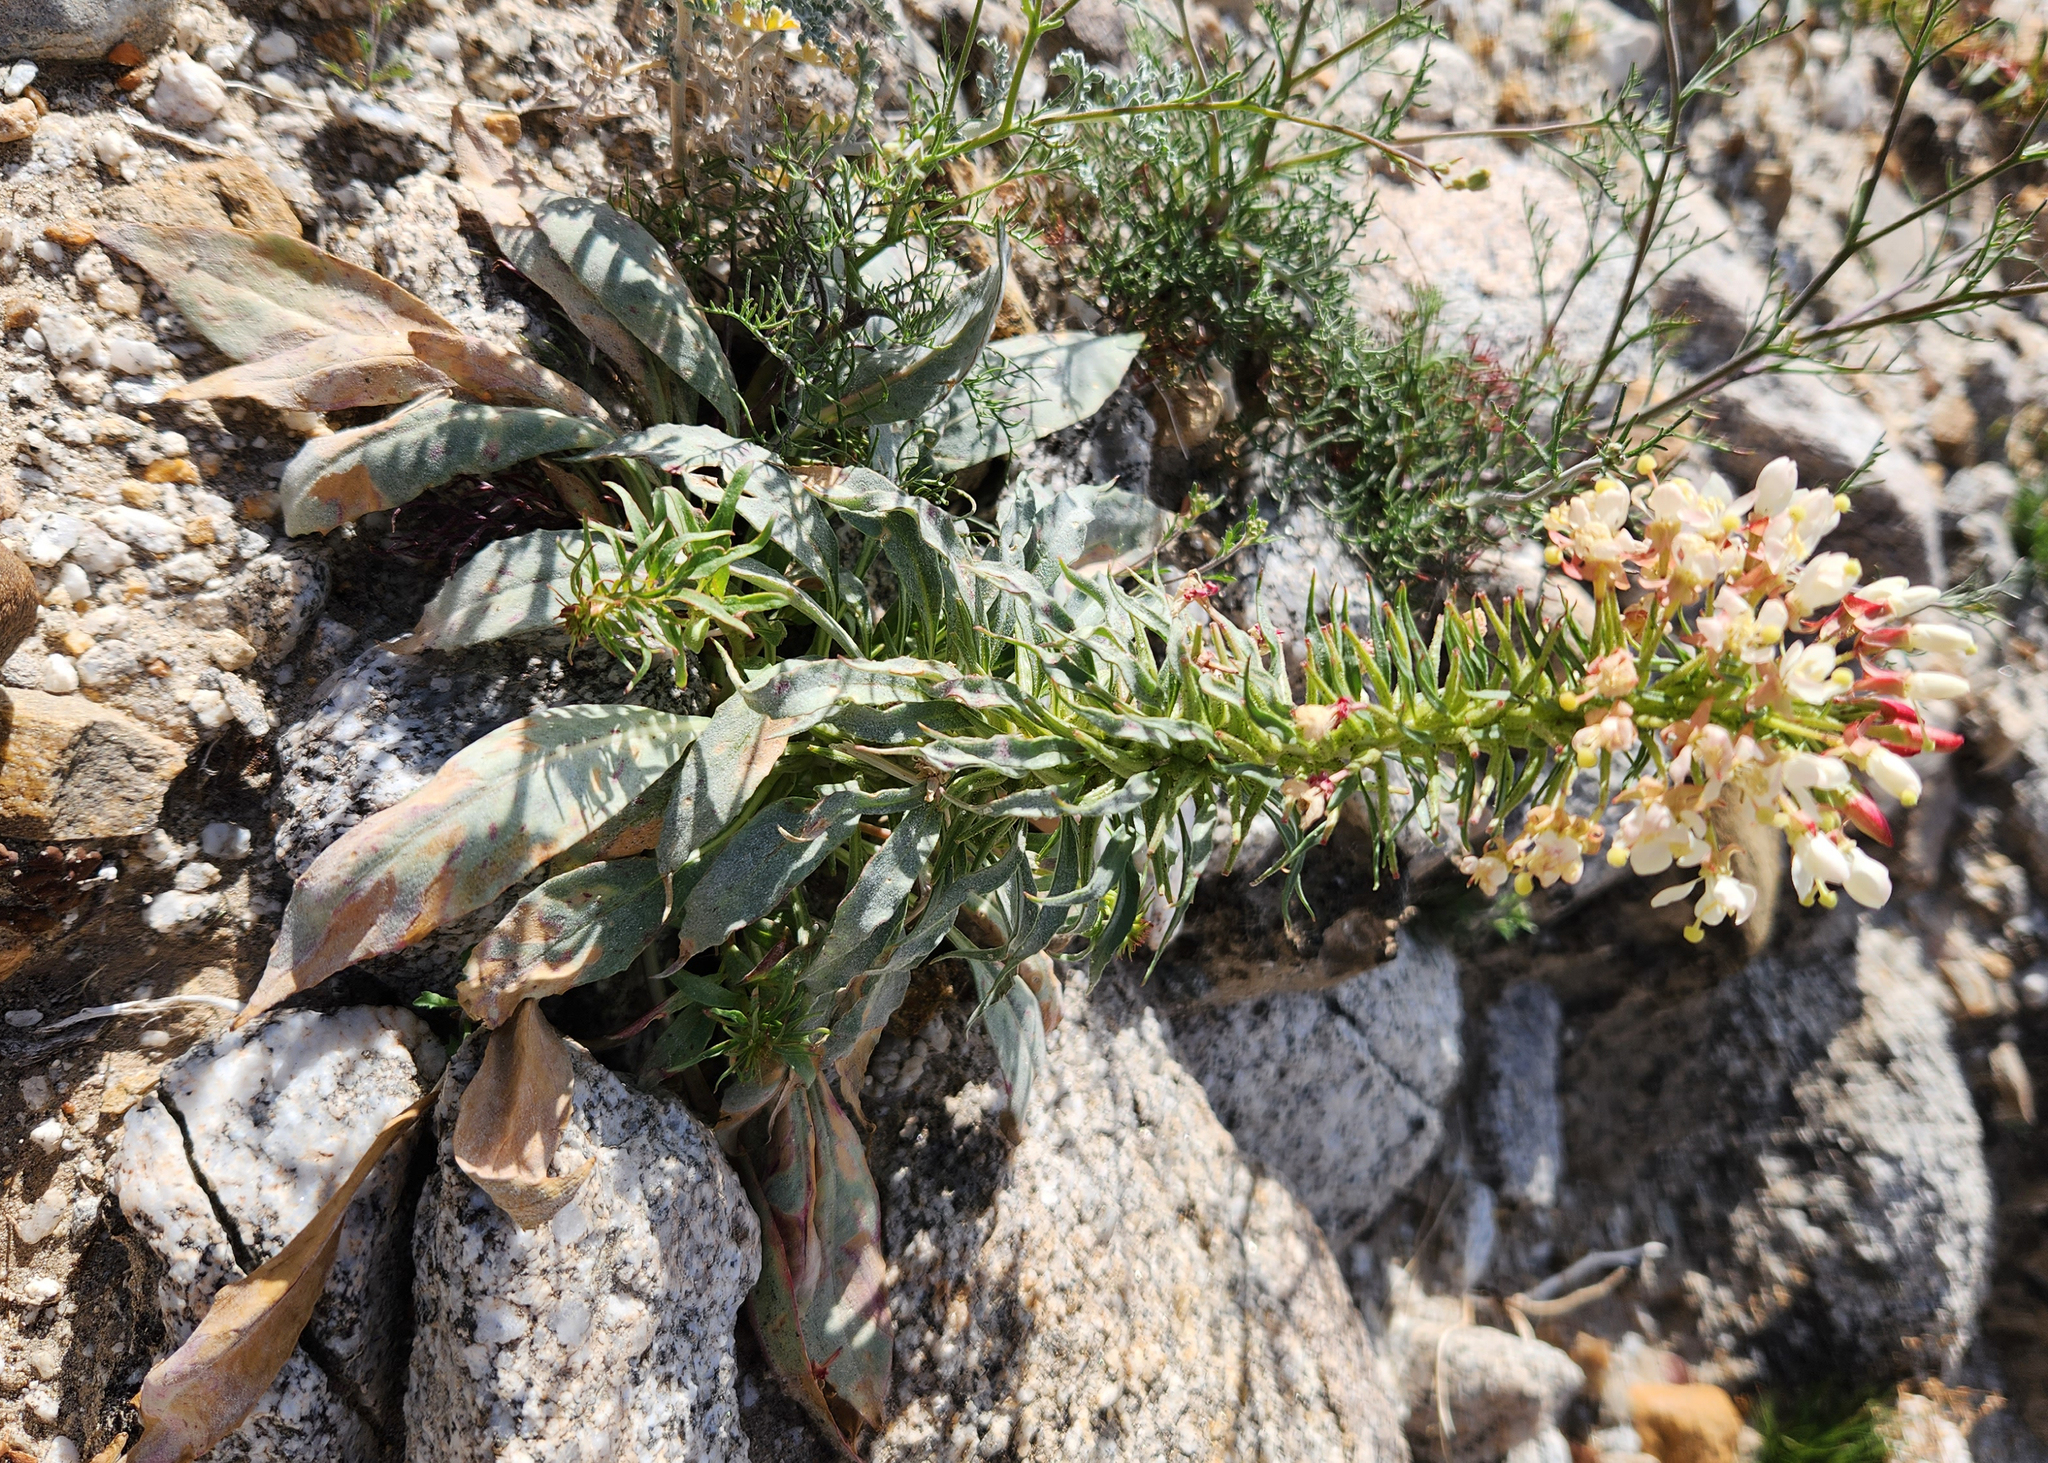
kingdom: Plantae
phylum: Tracheophyta
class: Magnoliopsida
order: Myrtales
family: Onagraceae
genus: Eremothera
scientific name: Eremothera boothii
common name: Booth's evening primrose
